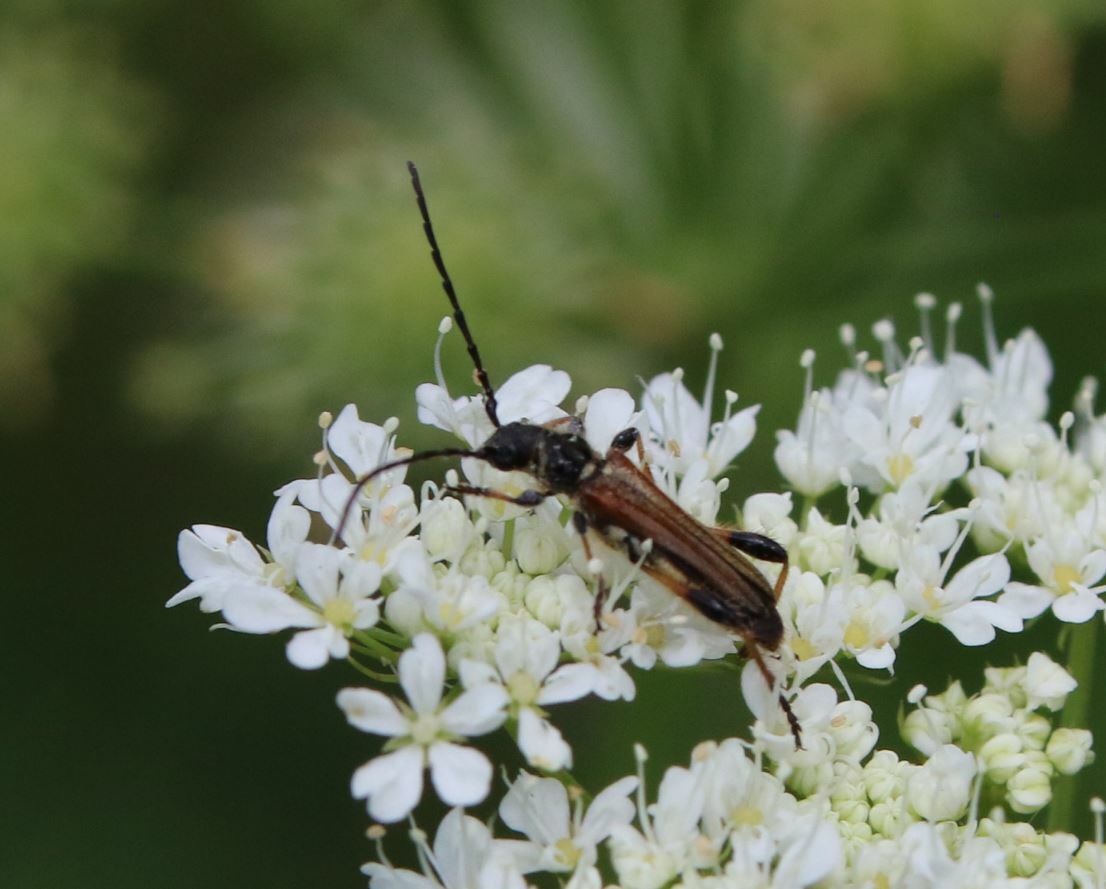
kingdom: Animalia
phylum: Arthropoda
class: Insecta
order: Coleoptera
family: Cerambycidae
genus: Stenopterus
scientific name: Stenopterus ater
